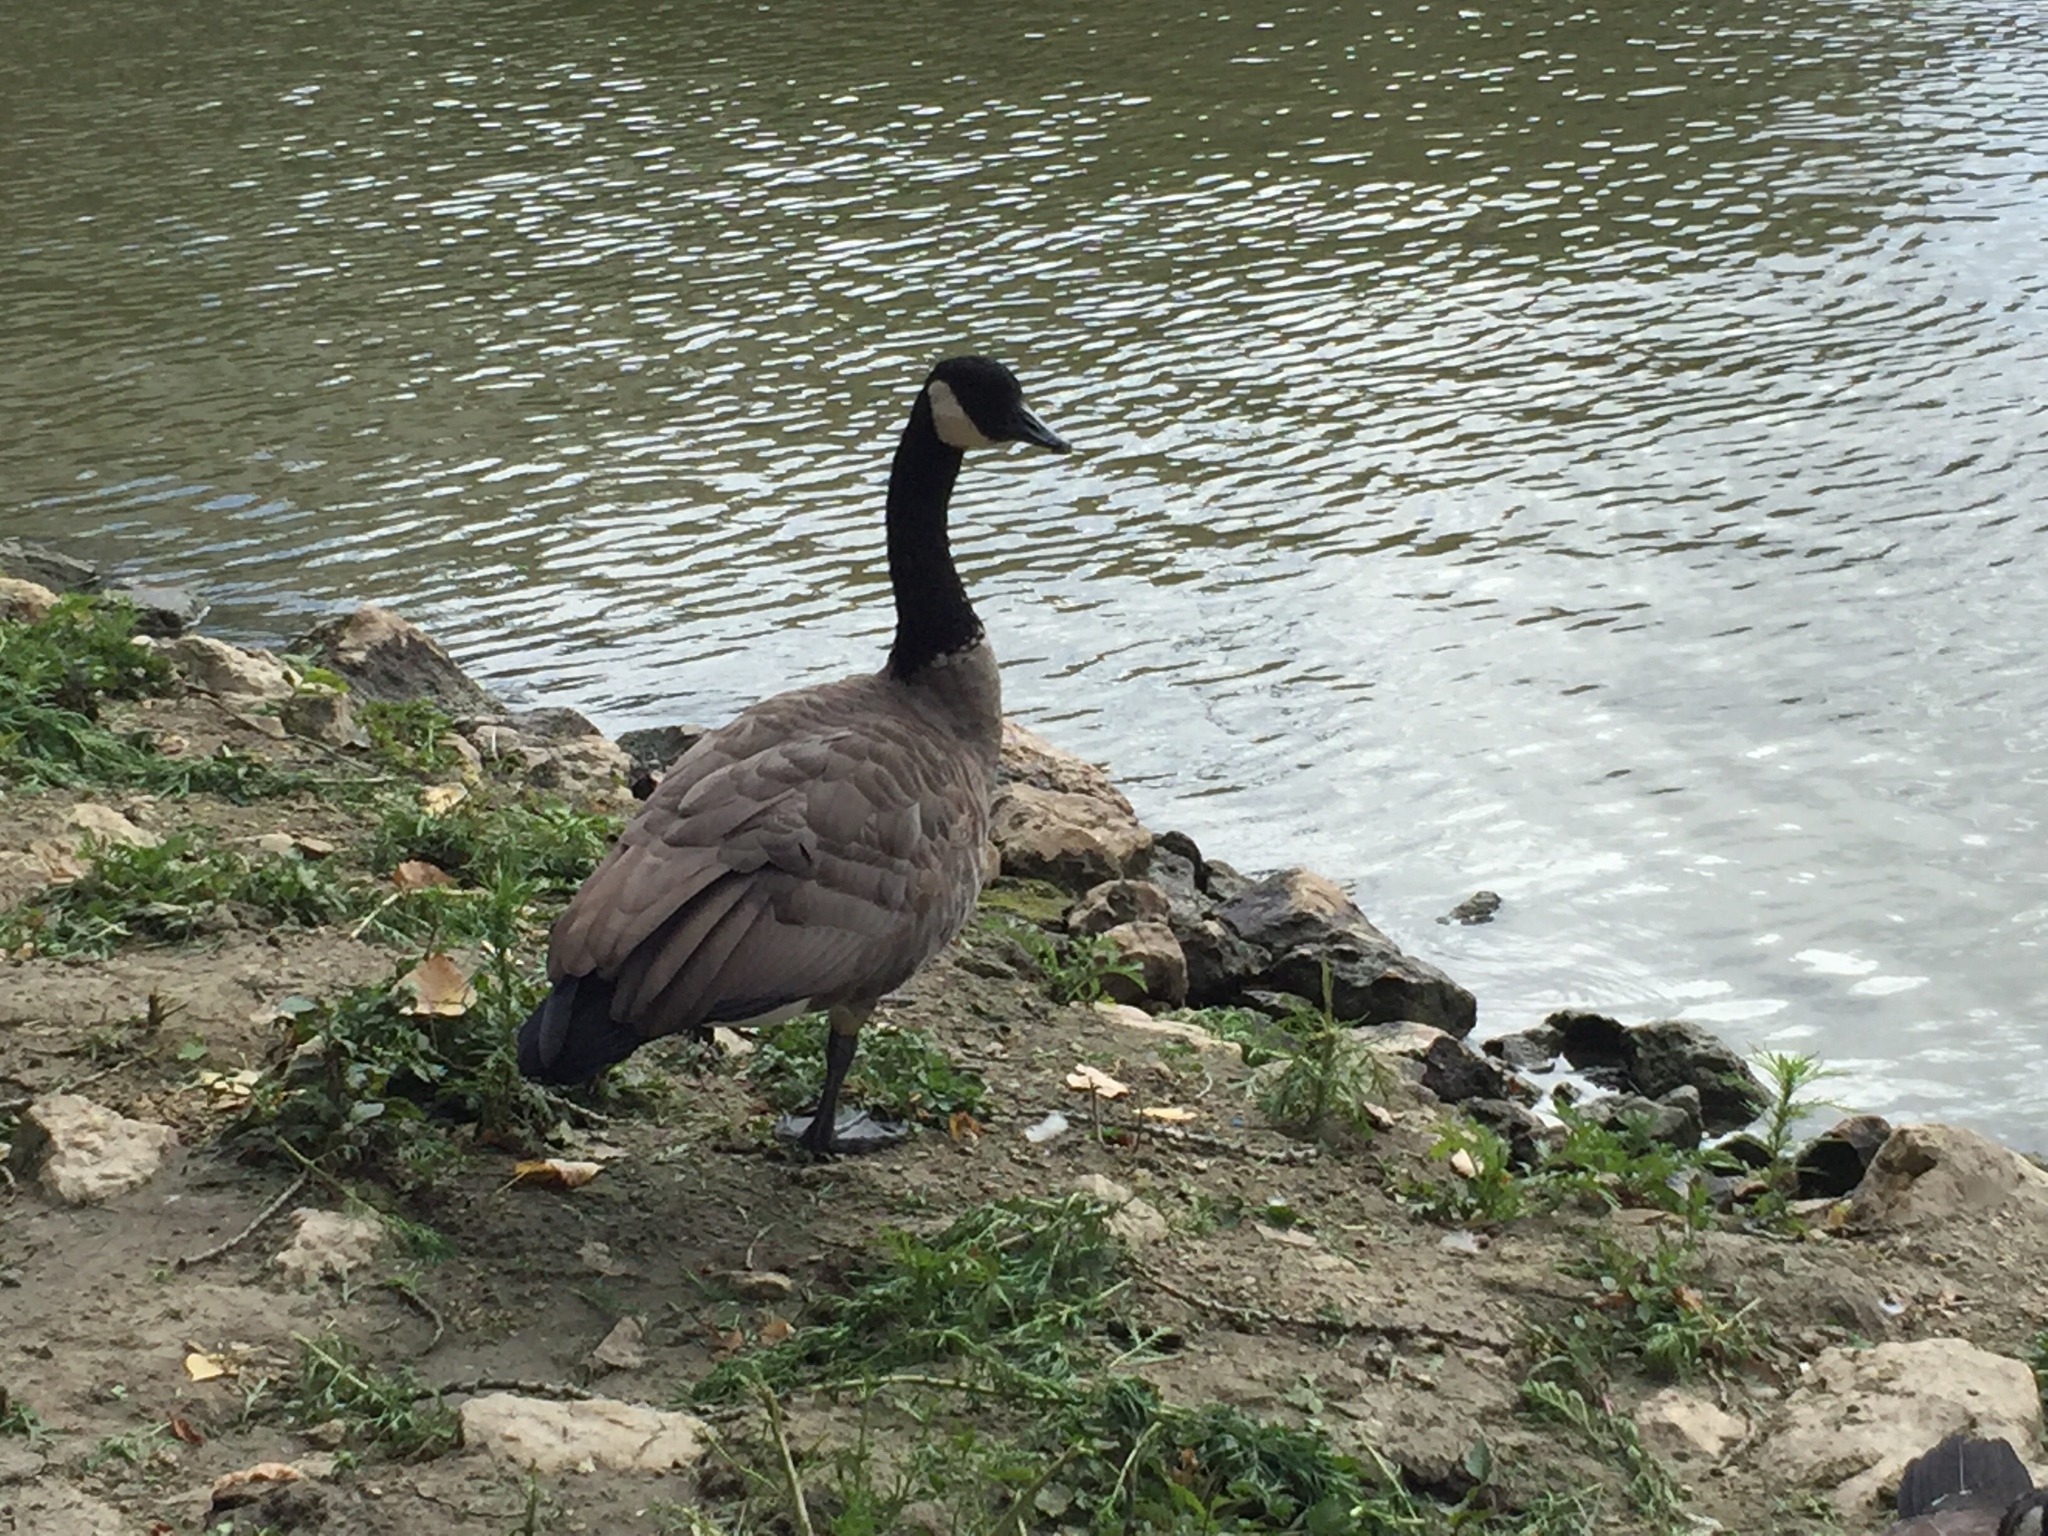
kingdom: Animalia
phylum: Chordata
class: Aves
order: Anseriformes
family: Anatidae
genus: Branta
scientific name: Branta canadensis
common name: Canada goose
